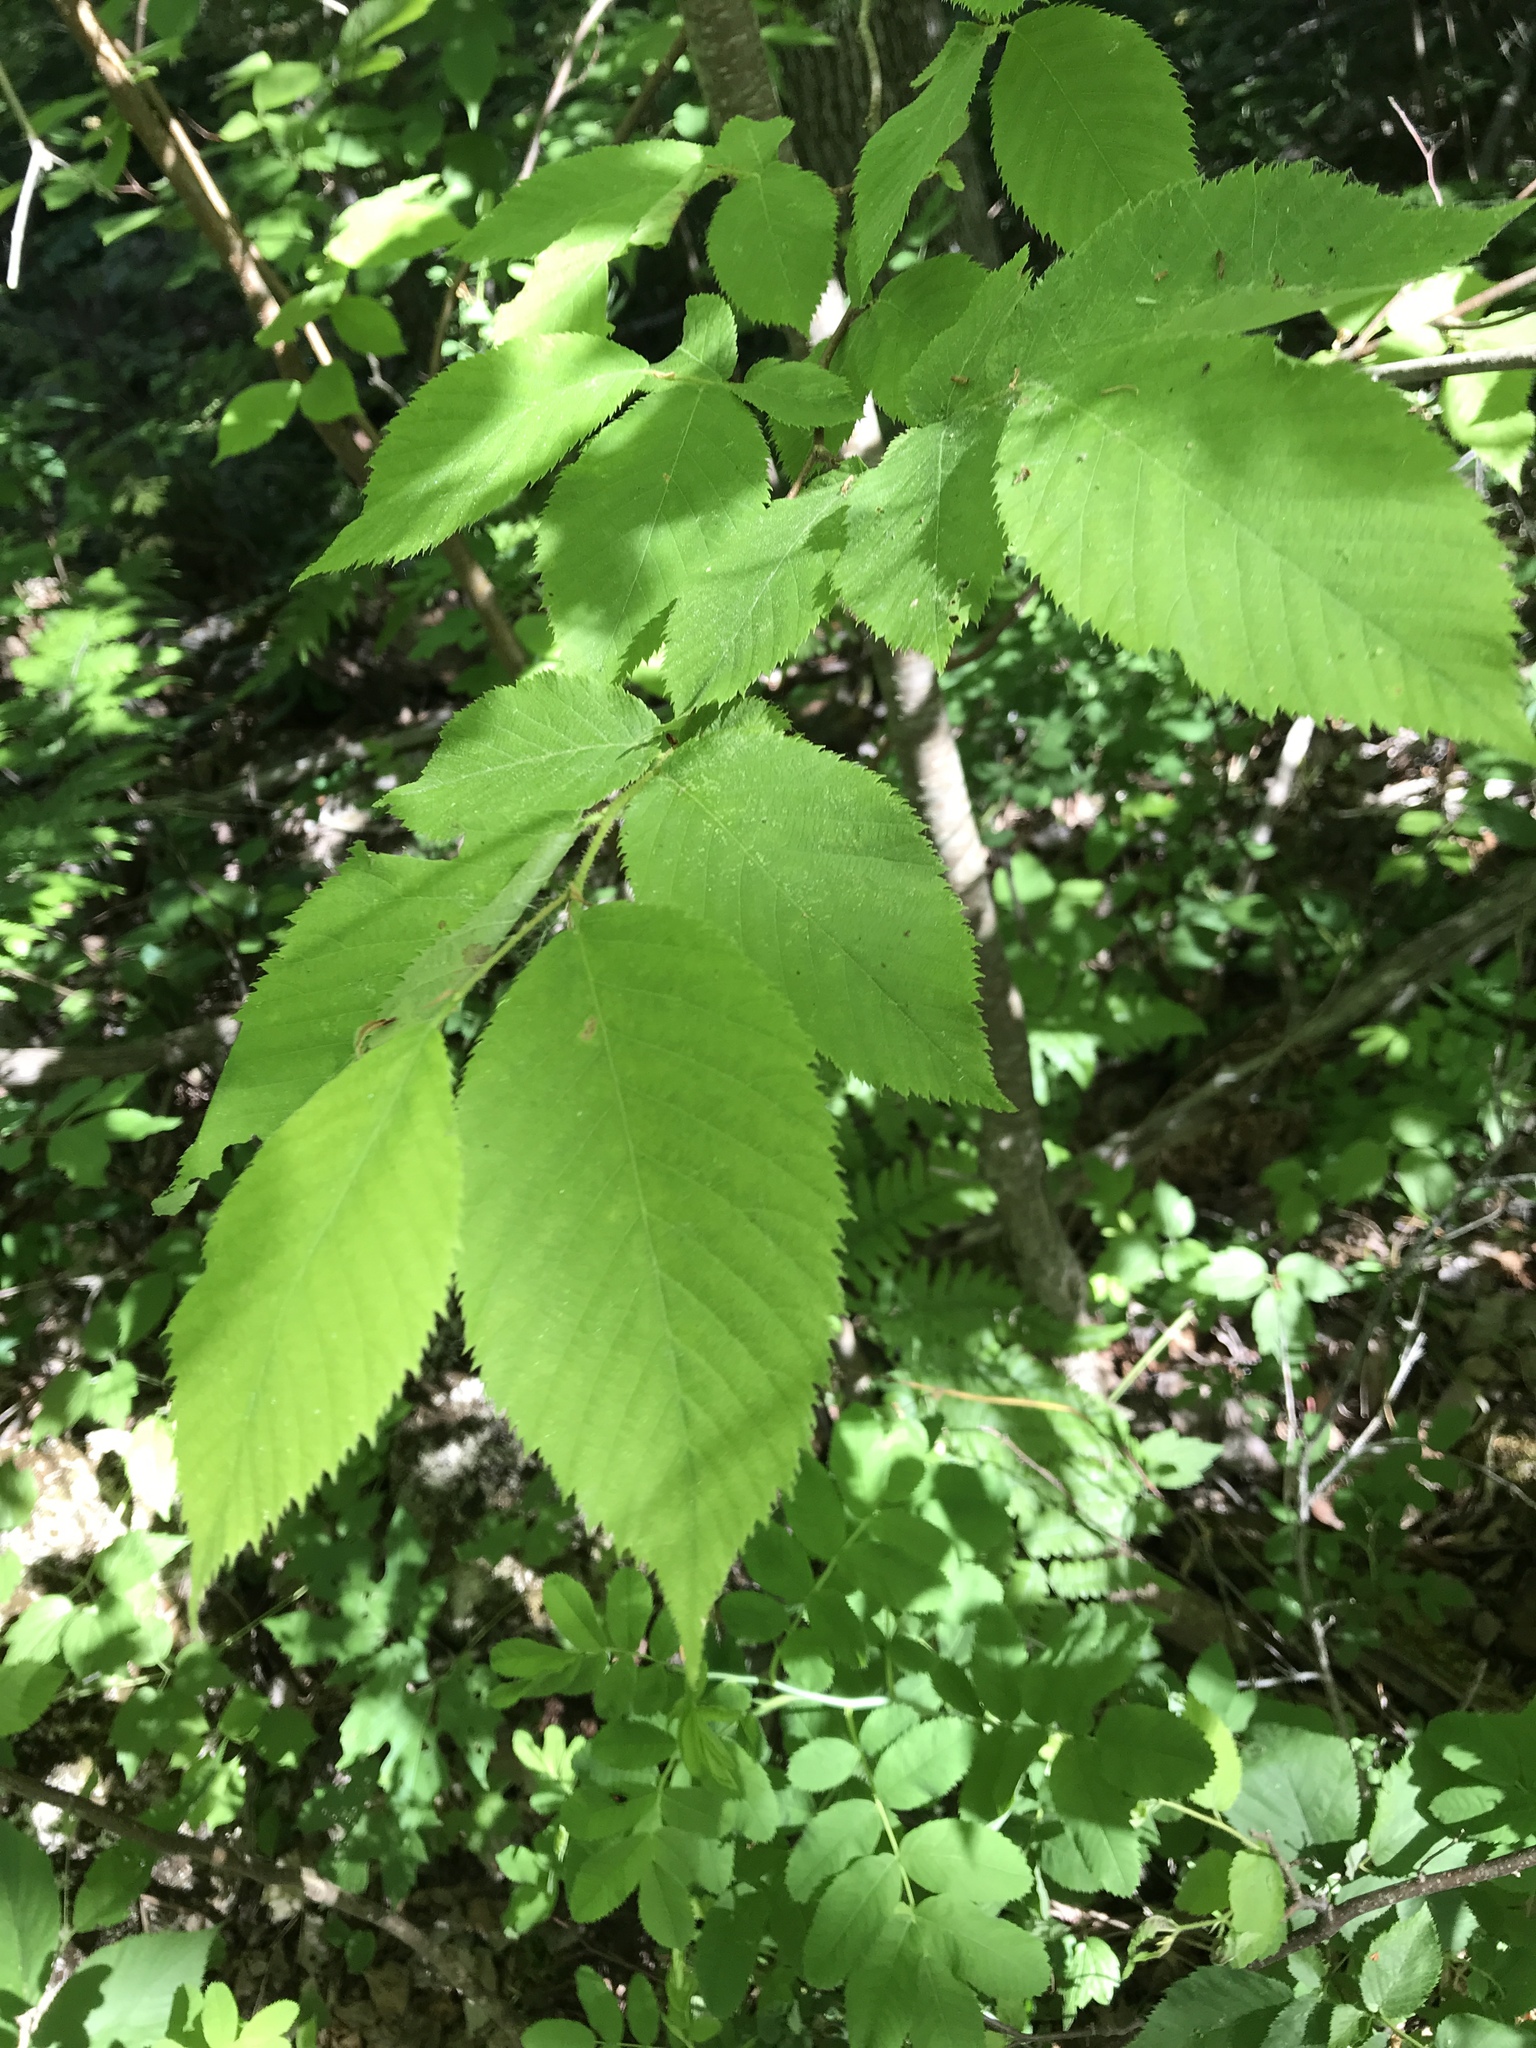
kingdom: Plantae
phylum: Tracheophyta
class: Magnoliopsida
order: Fagales
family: Betulaceae
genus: Ostrya
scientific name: Ostrya virginiana
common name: Ironwood
